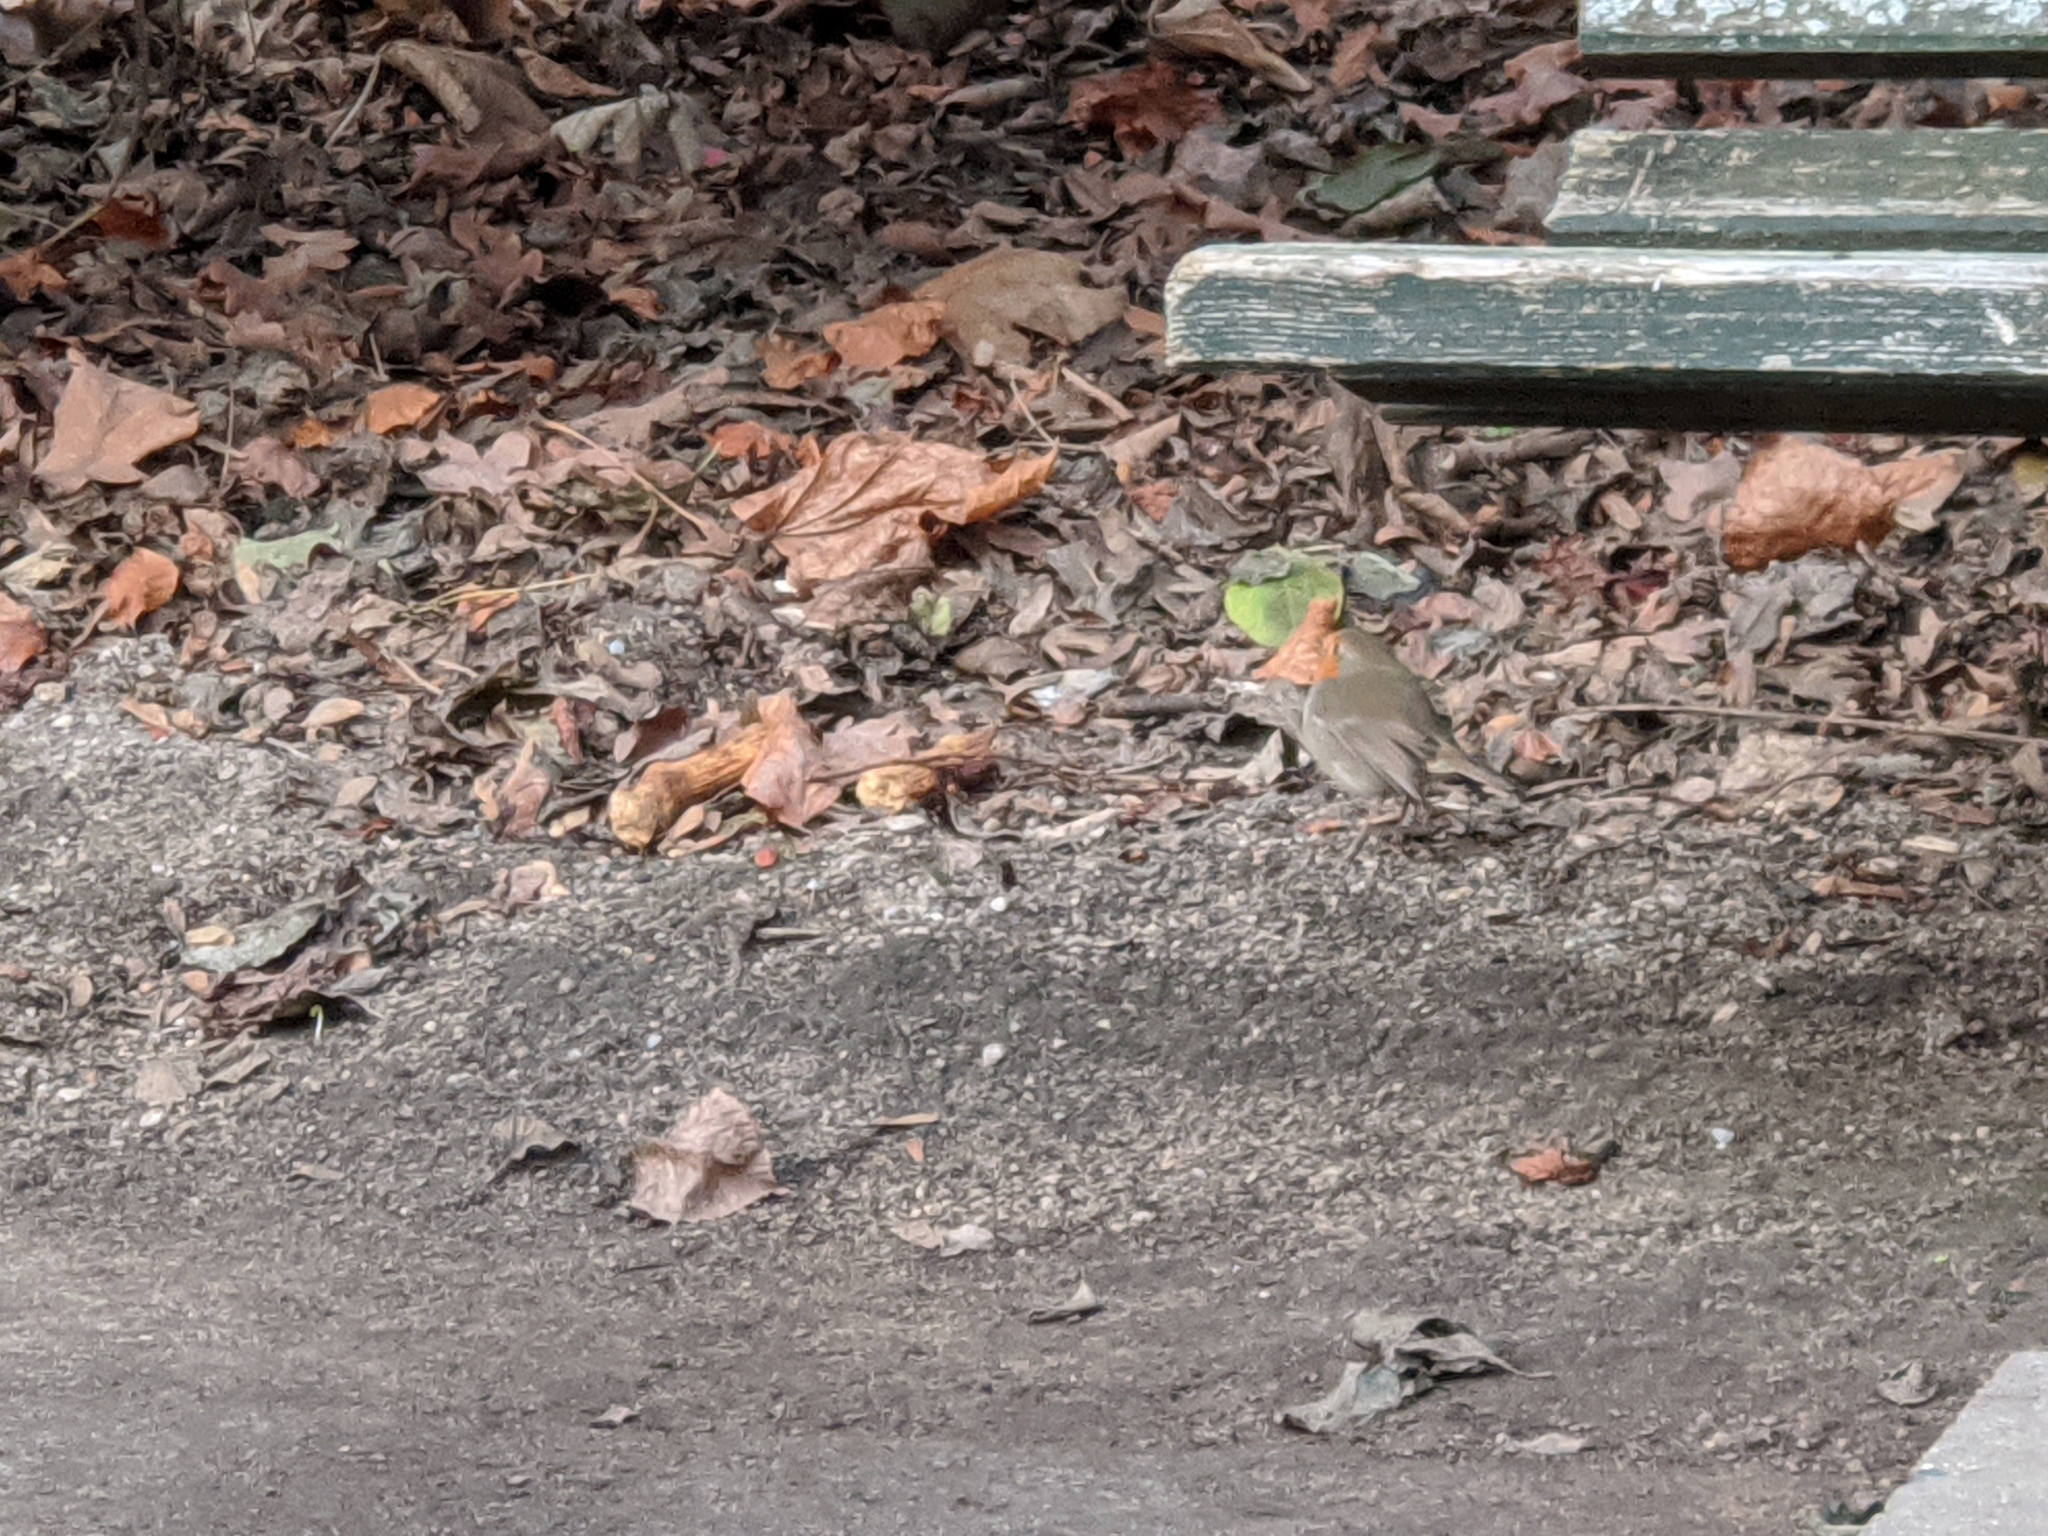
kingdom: Animalia
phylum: Chordata
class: Aves
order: Passeriformes
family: Muscicapidae
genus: Erithacus
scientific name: Erithacus rubecula
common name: European robin
